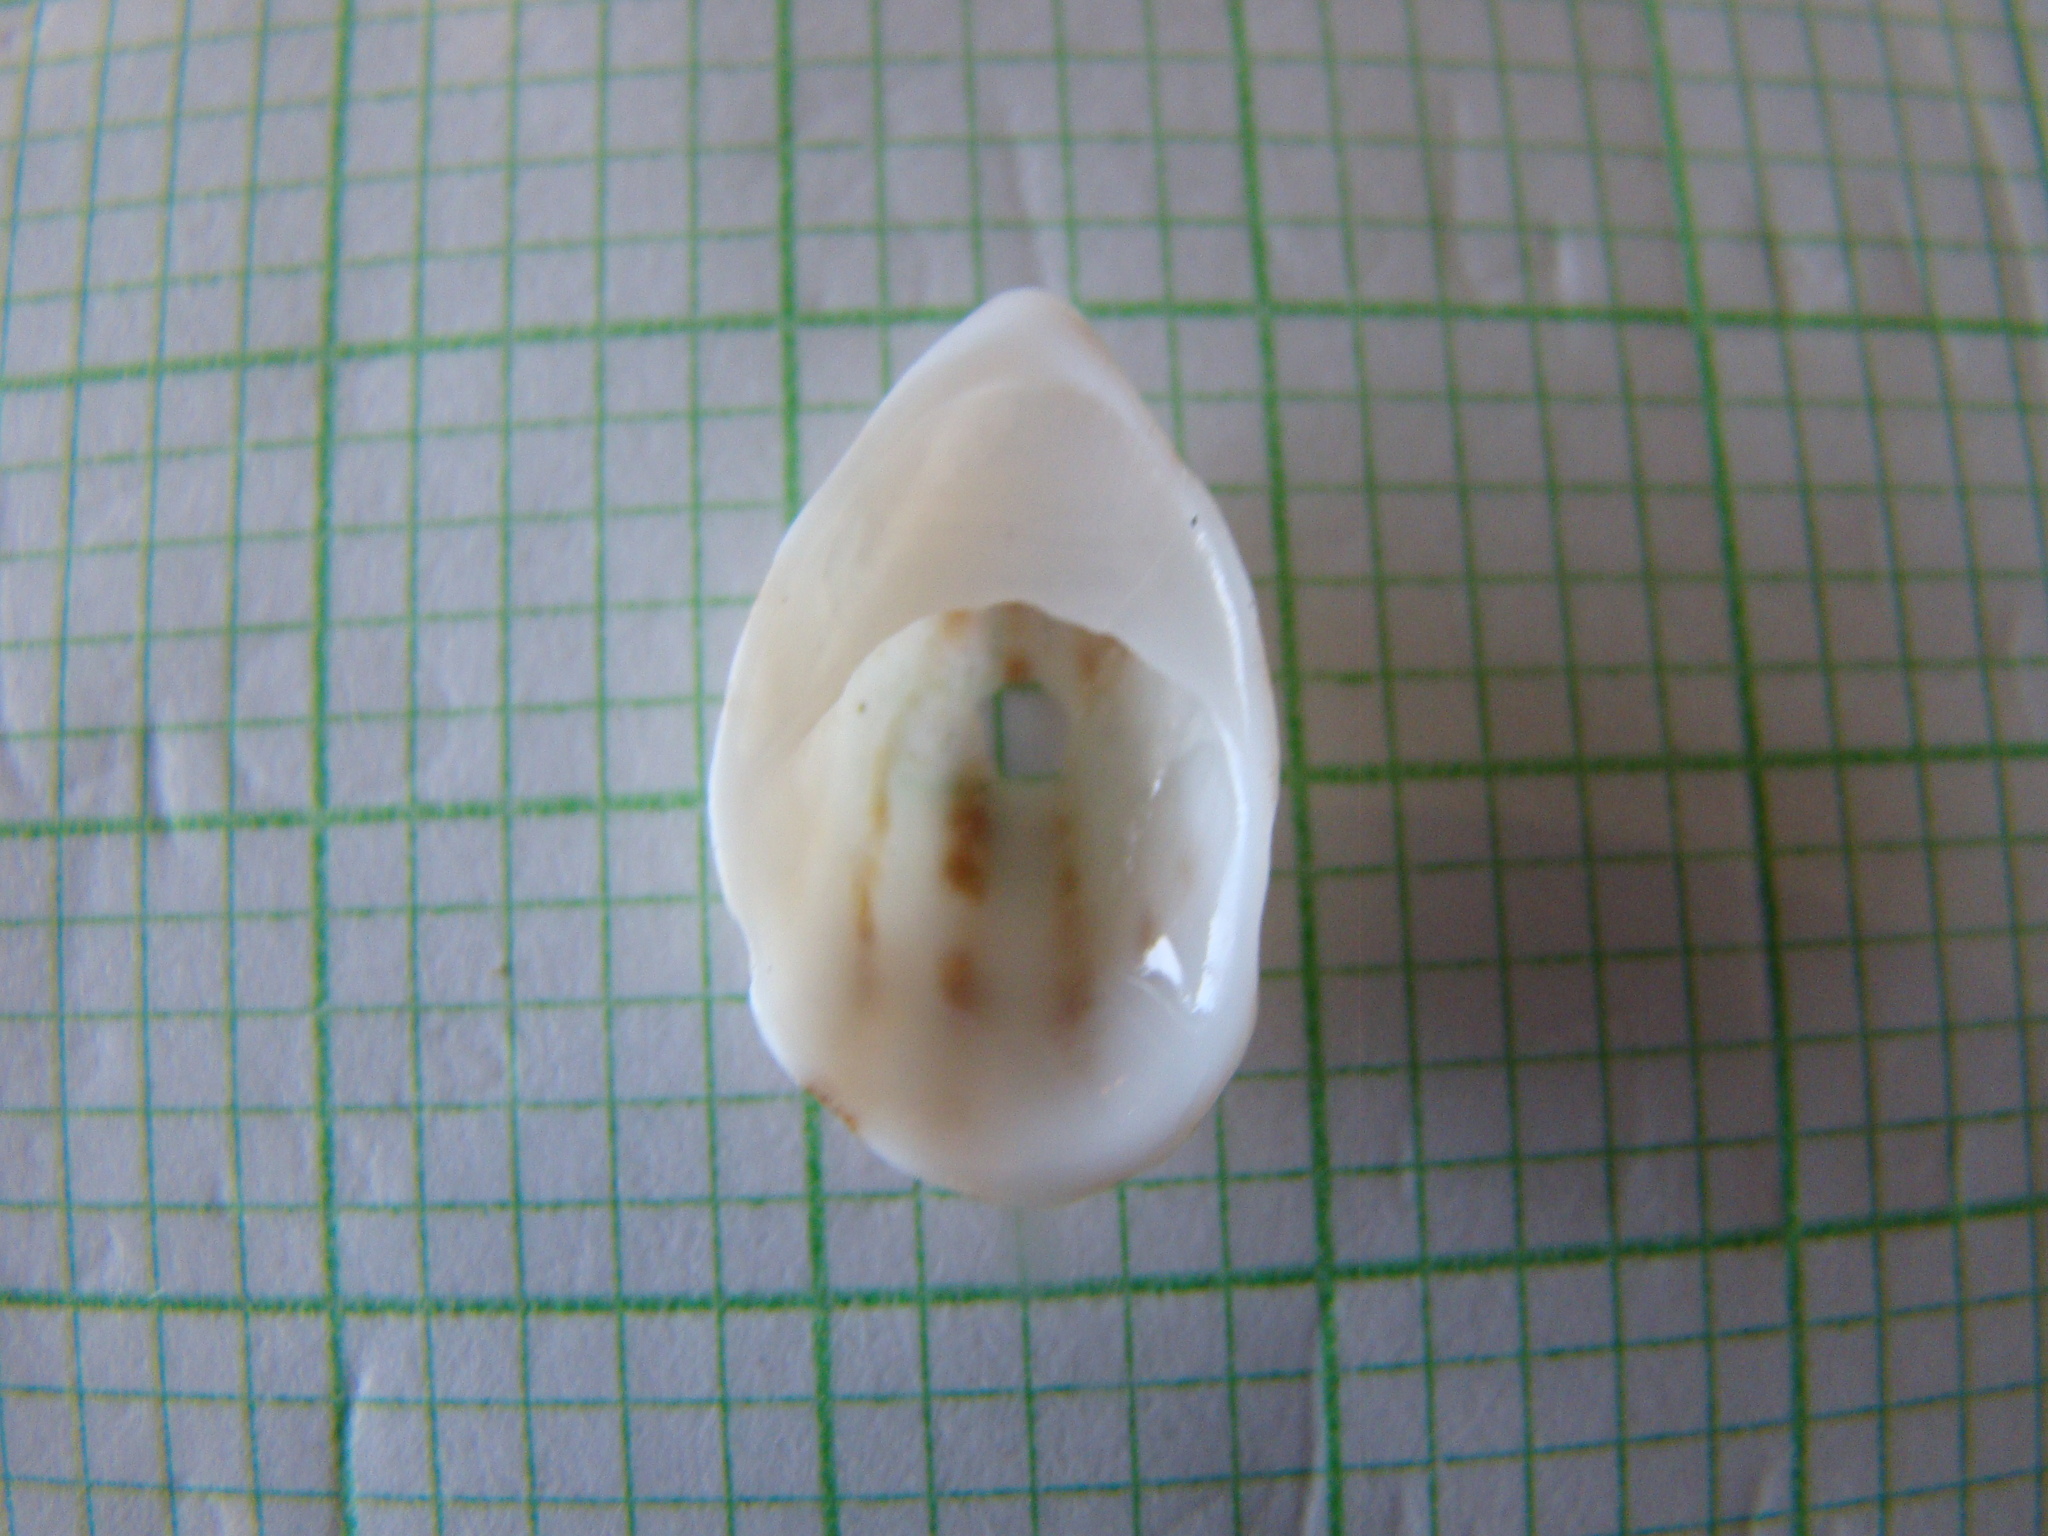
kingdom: Animalia
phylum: Mollusca
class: Gastropoda
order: Littorinimorpha
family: Calyptraeidae
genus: Maoricrypta
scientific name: Maoricrypta costata
